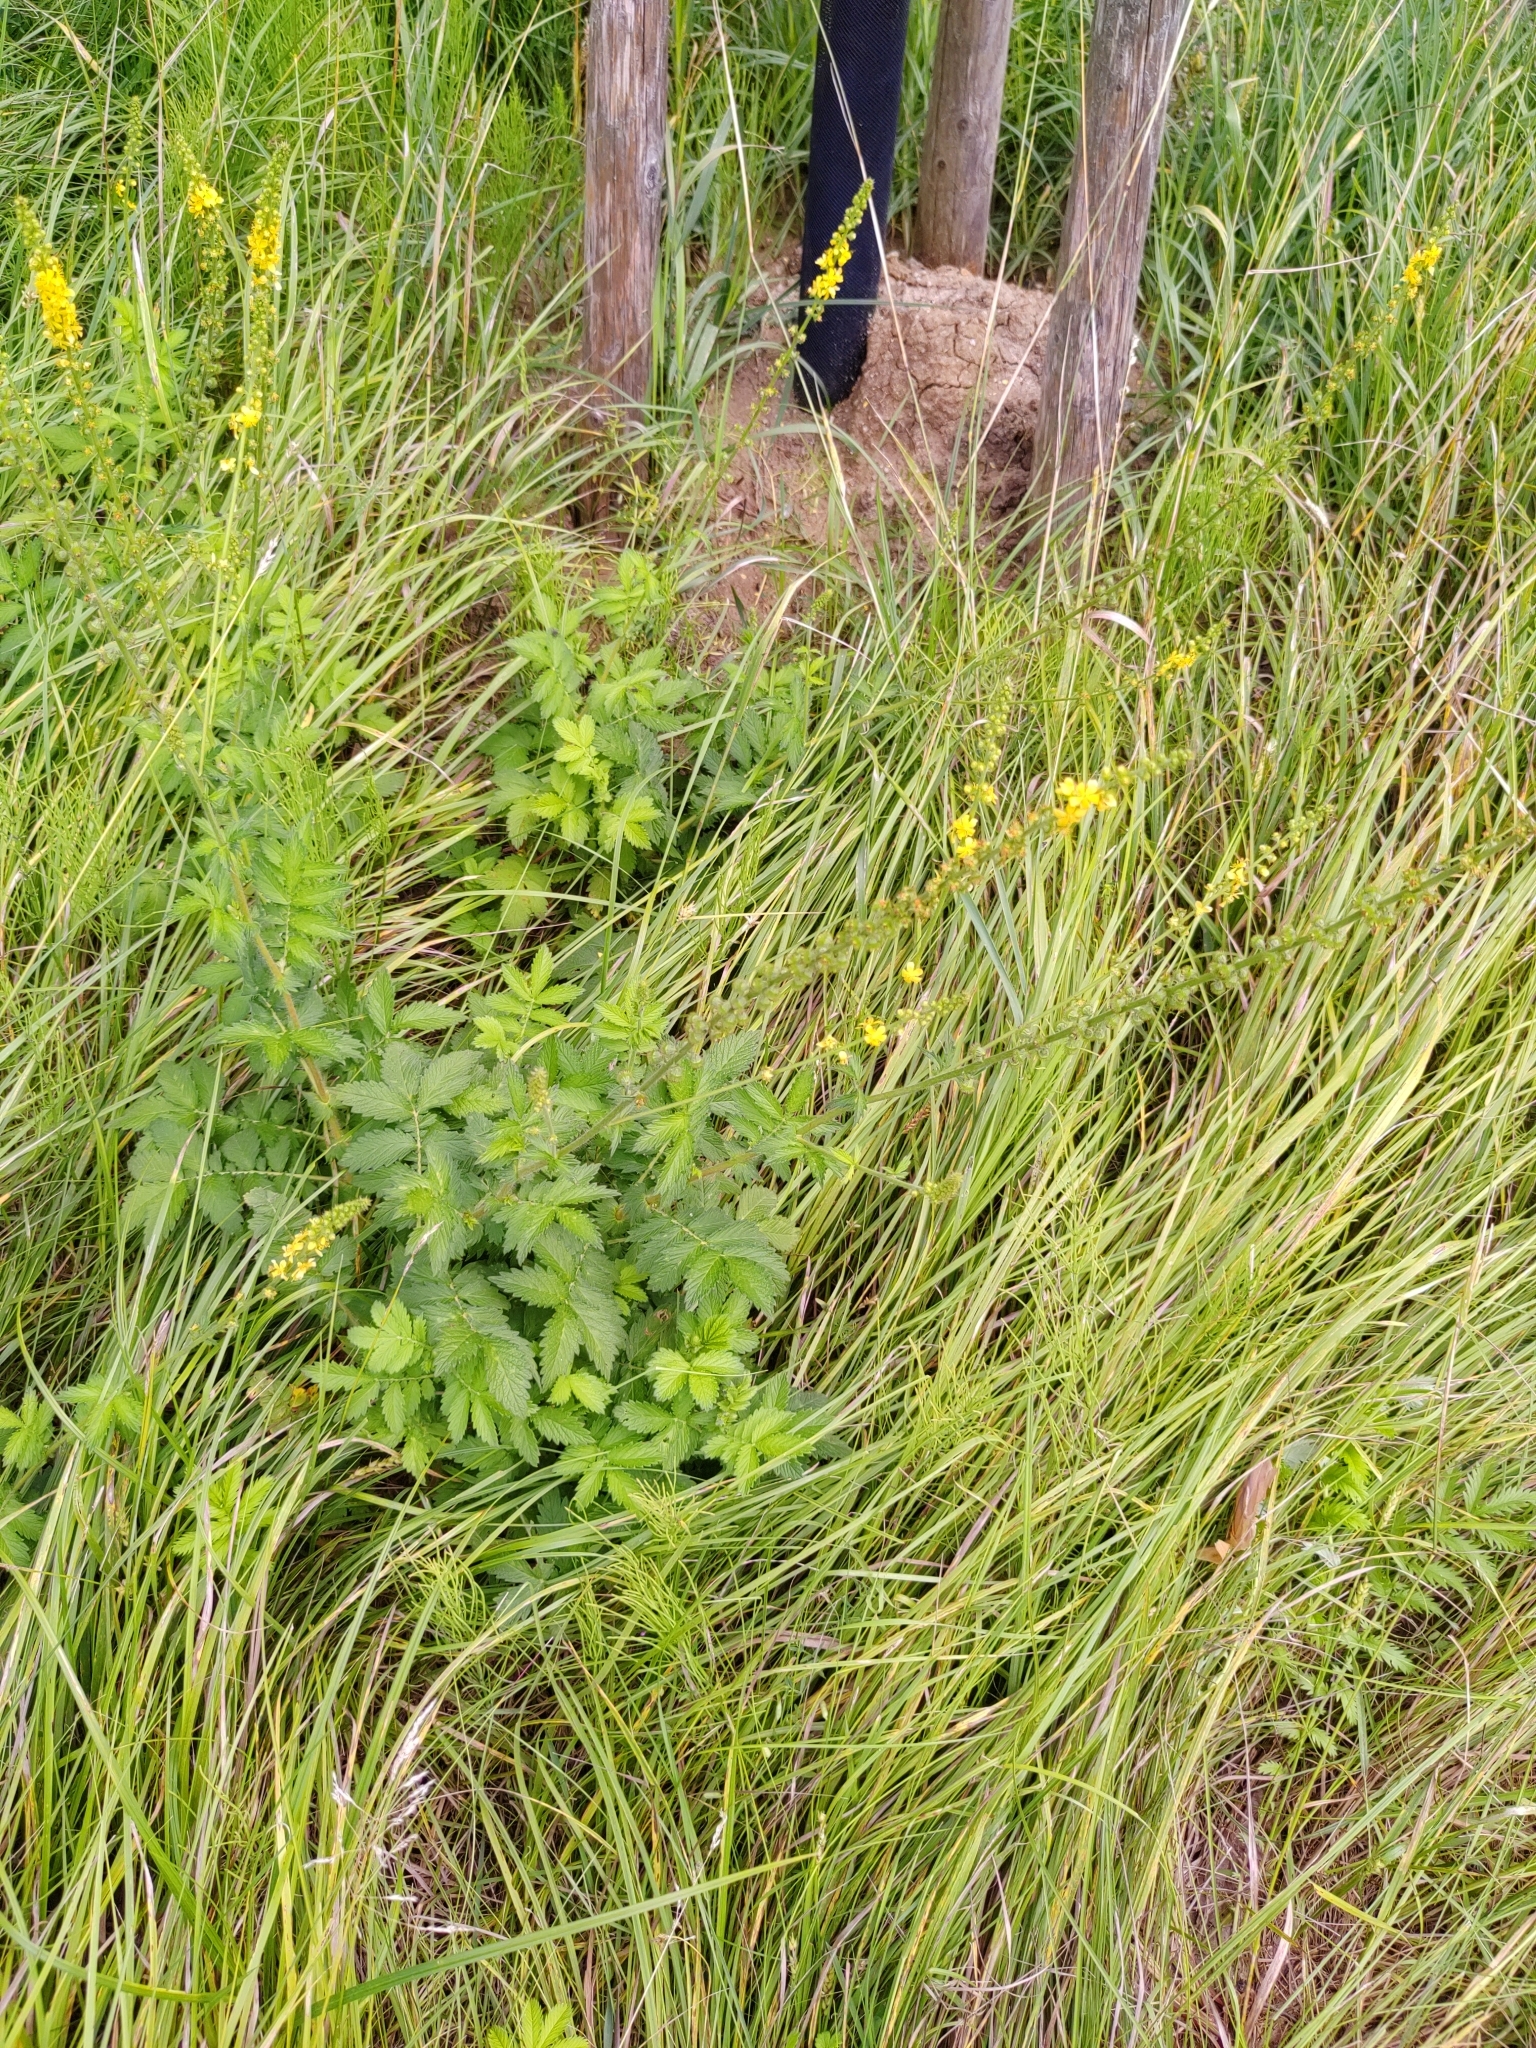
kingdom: Plantae
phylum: Tracheophyta
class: Magnoliopsida
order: Rosales
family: Rosaceae
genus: Agrimonia
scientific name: Agrimonia eupatoria
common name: Agrimony
